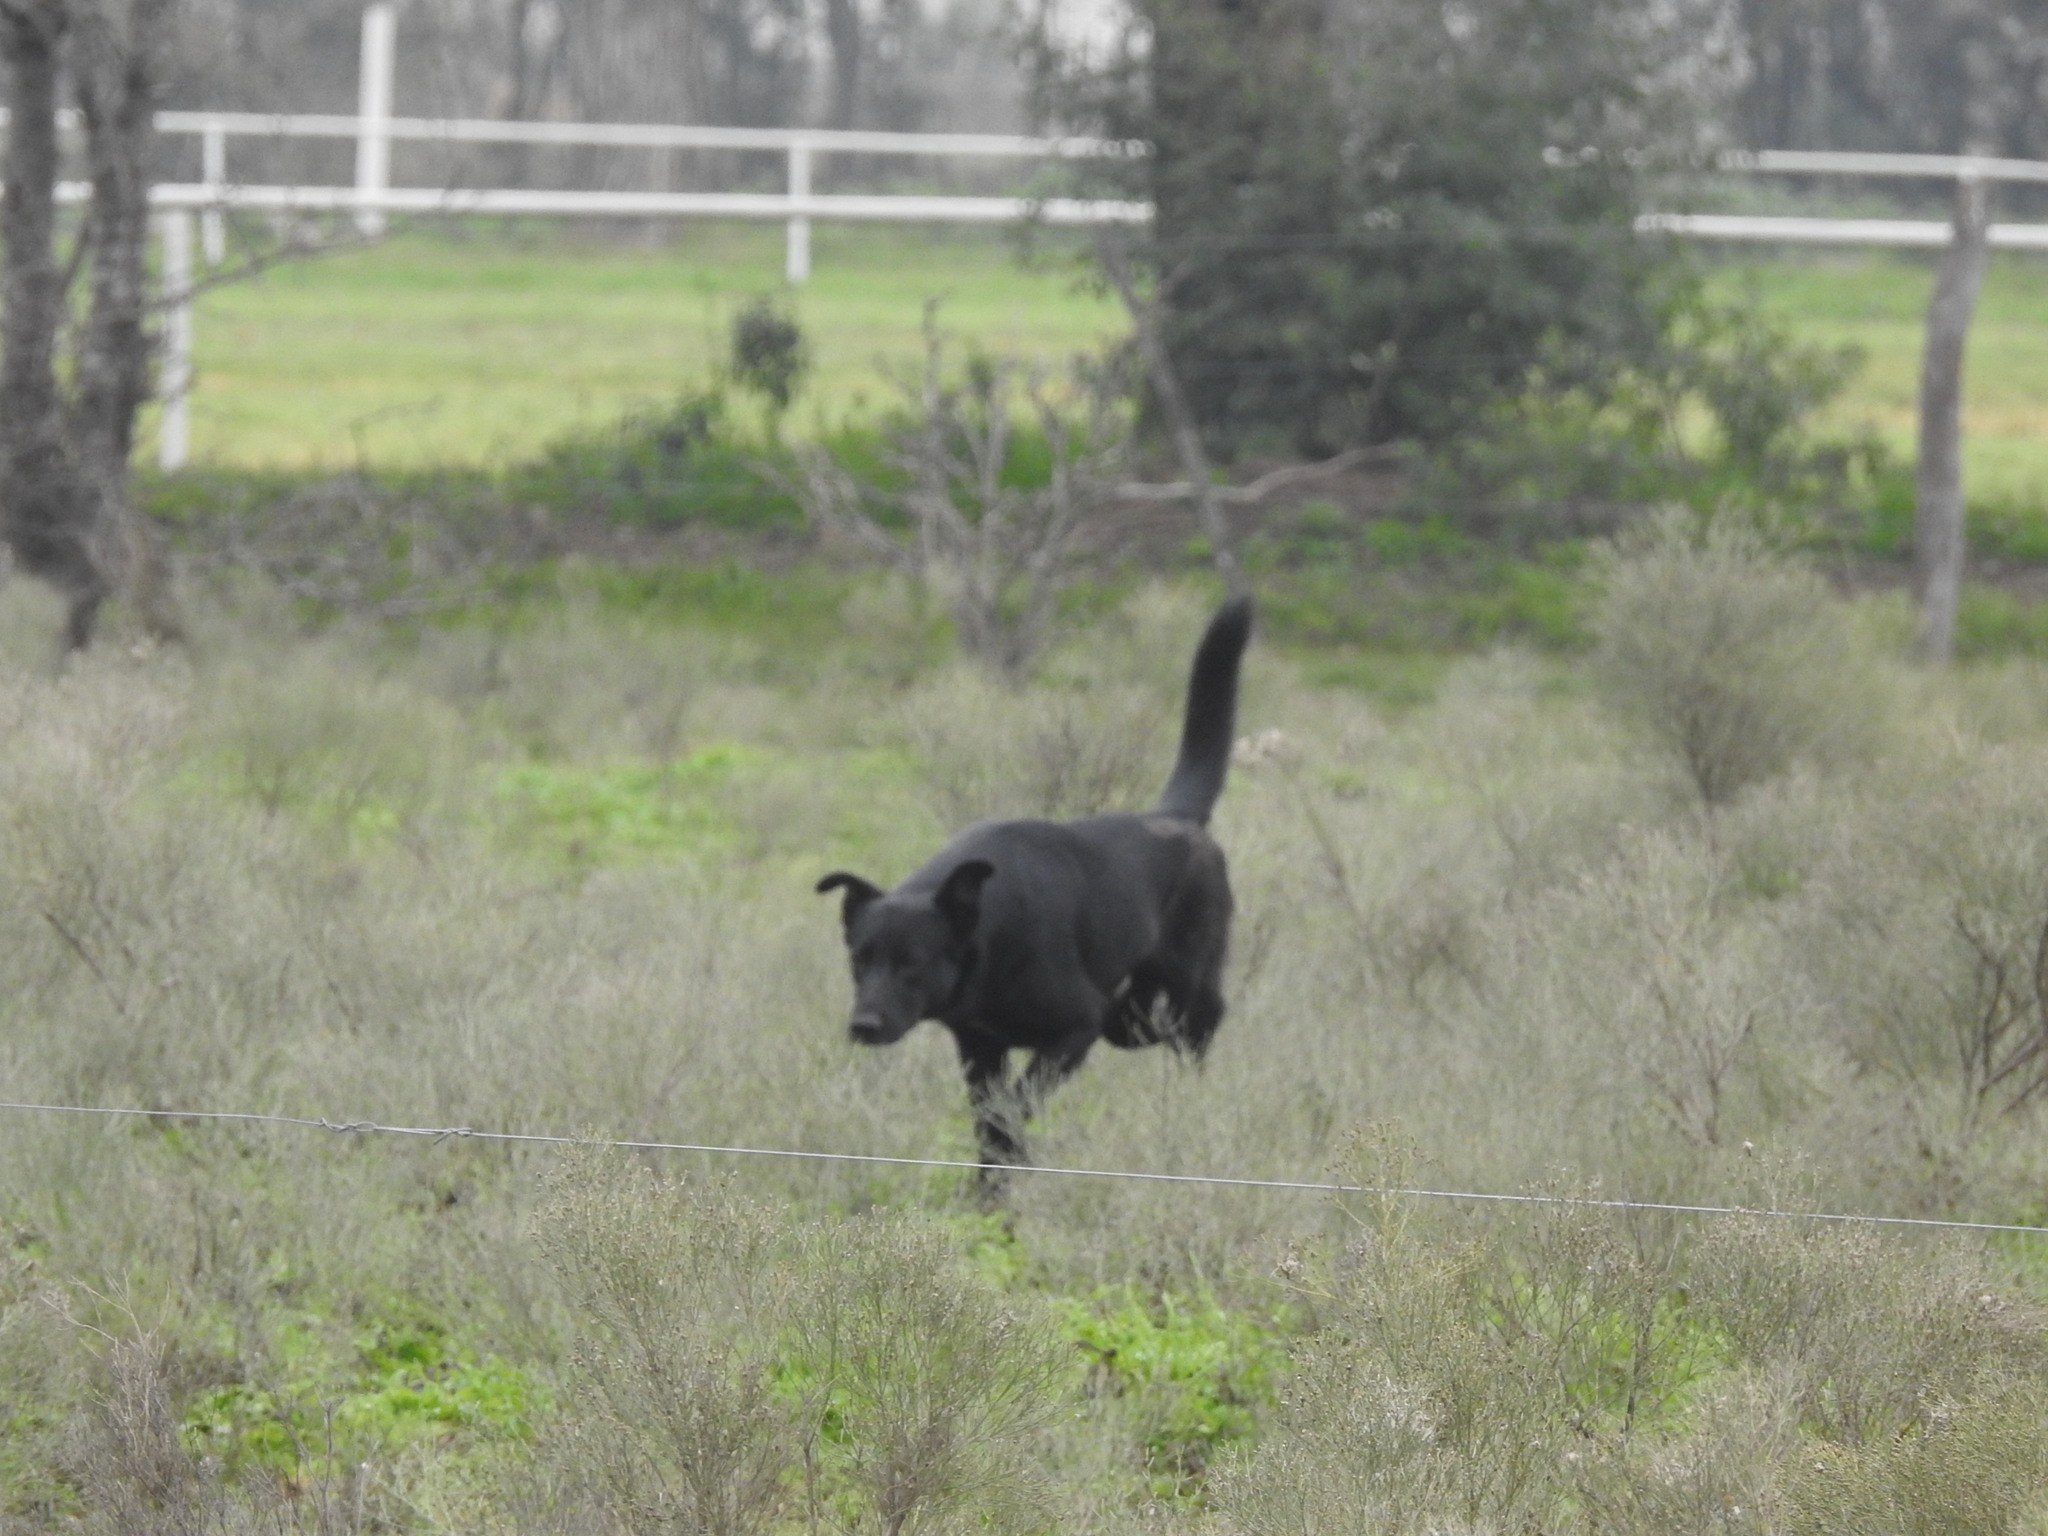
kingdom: Animalia
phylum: Chordata
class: Mammalia
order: Carnivora
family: Canidae
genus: Canis
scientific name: Canis lupus
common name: Gray wolf
